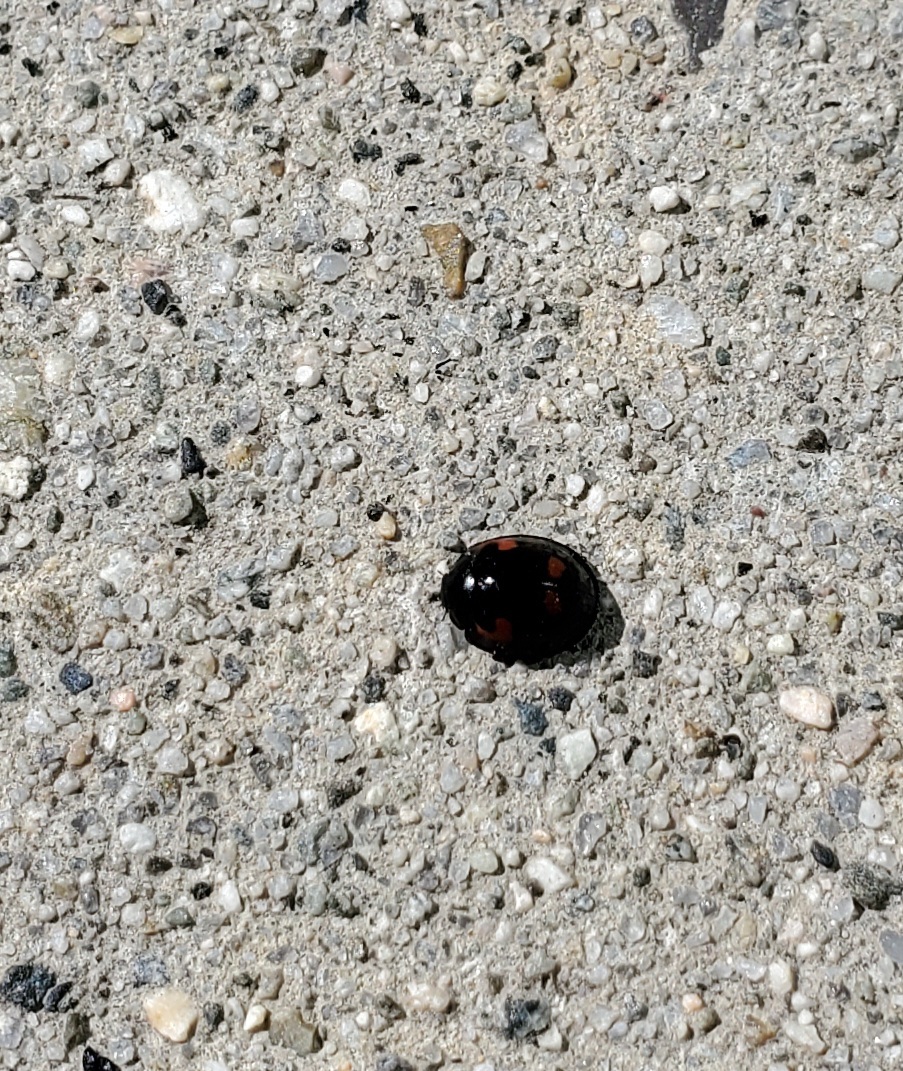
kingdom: Animalia
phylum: Arthropoda
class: Insecta
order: Coleoptera
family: Coccinellidae
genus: Brumus
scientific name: Brumus quadripustulatus
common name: Ladybird beetle
